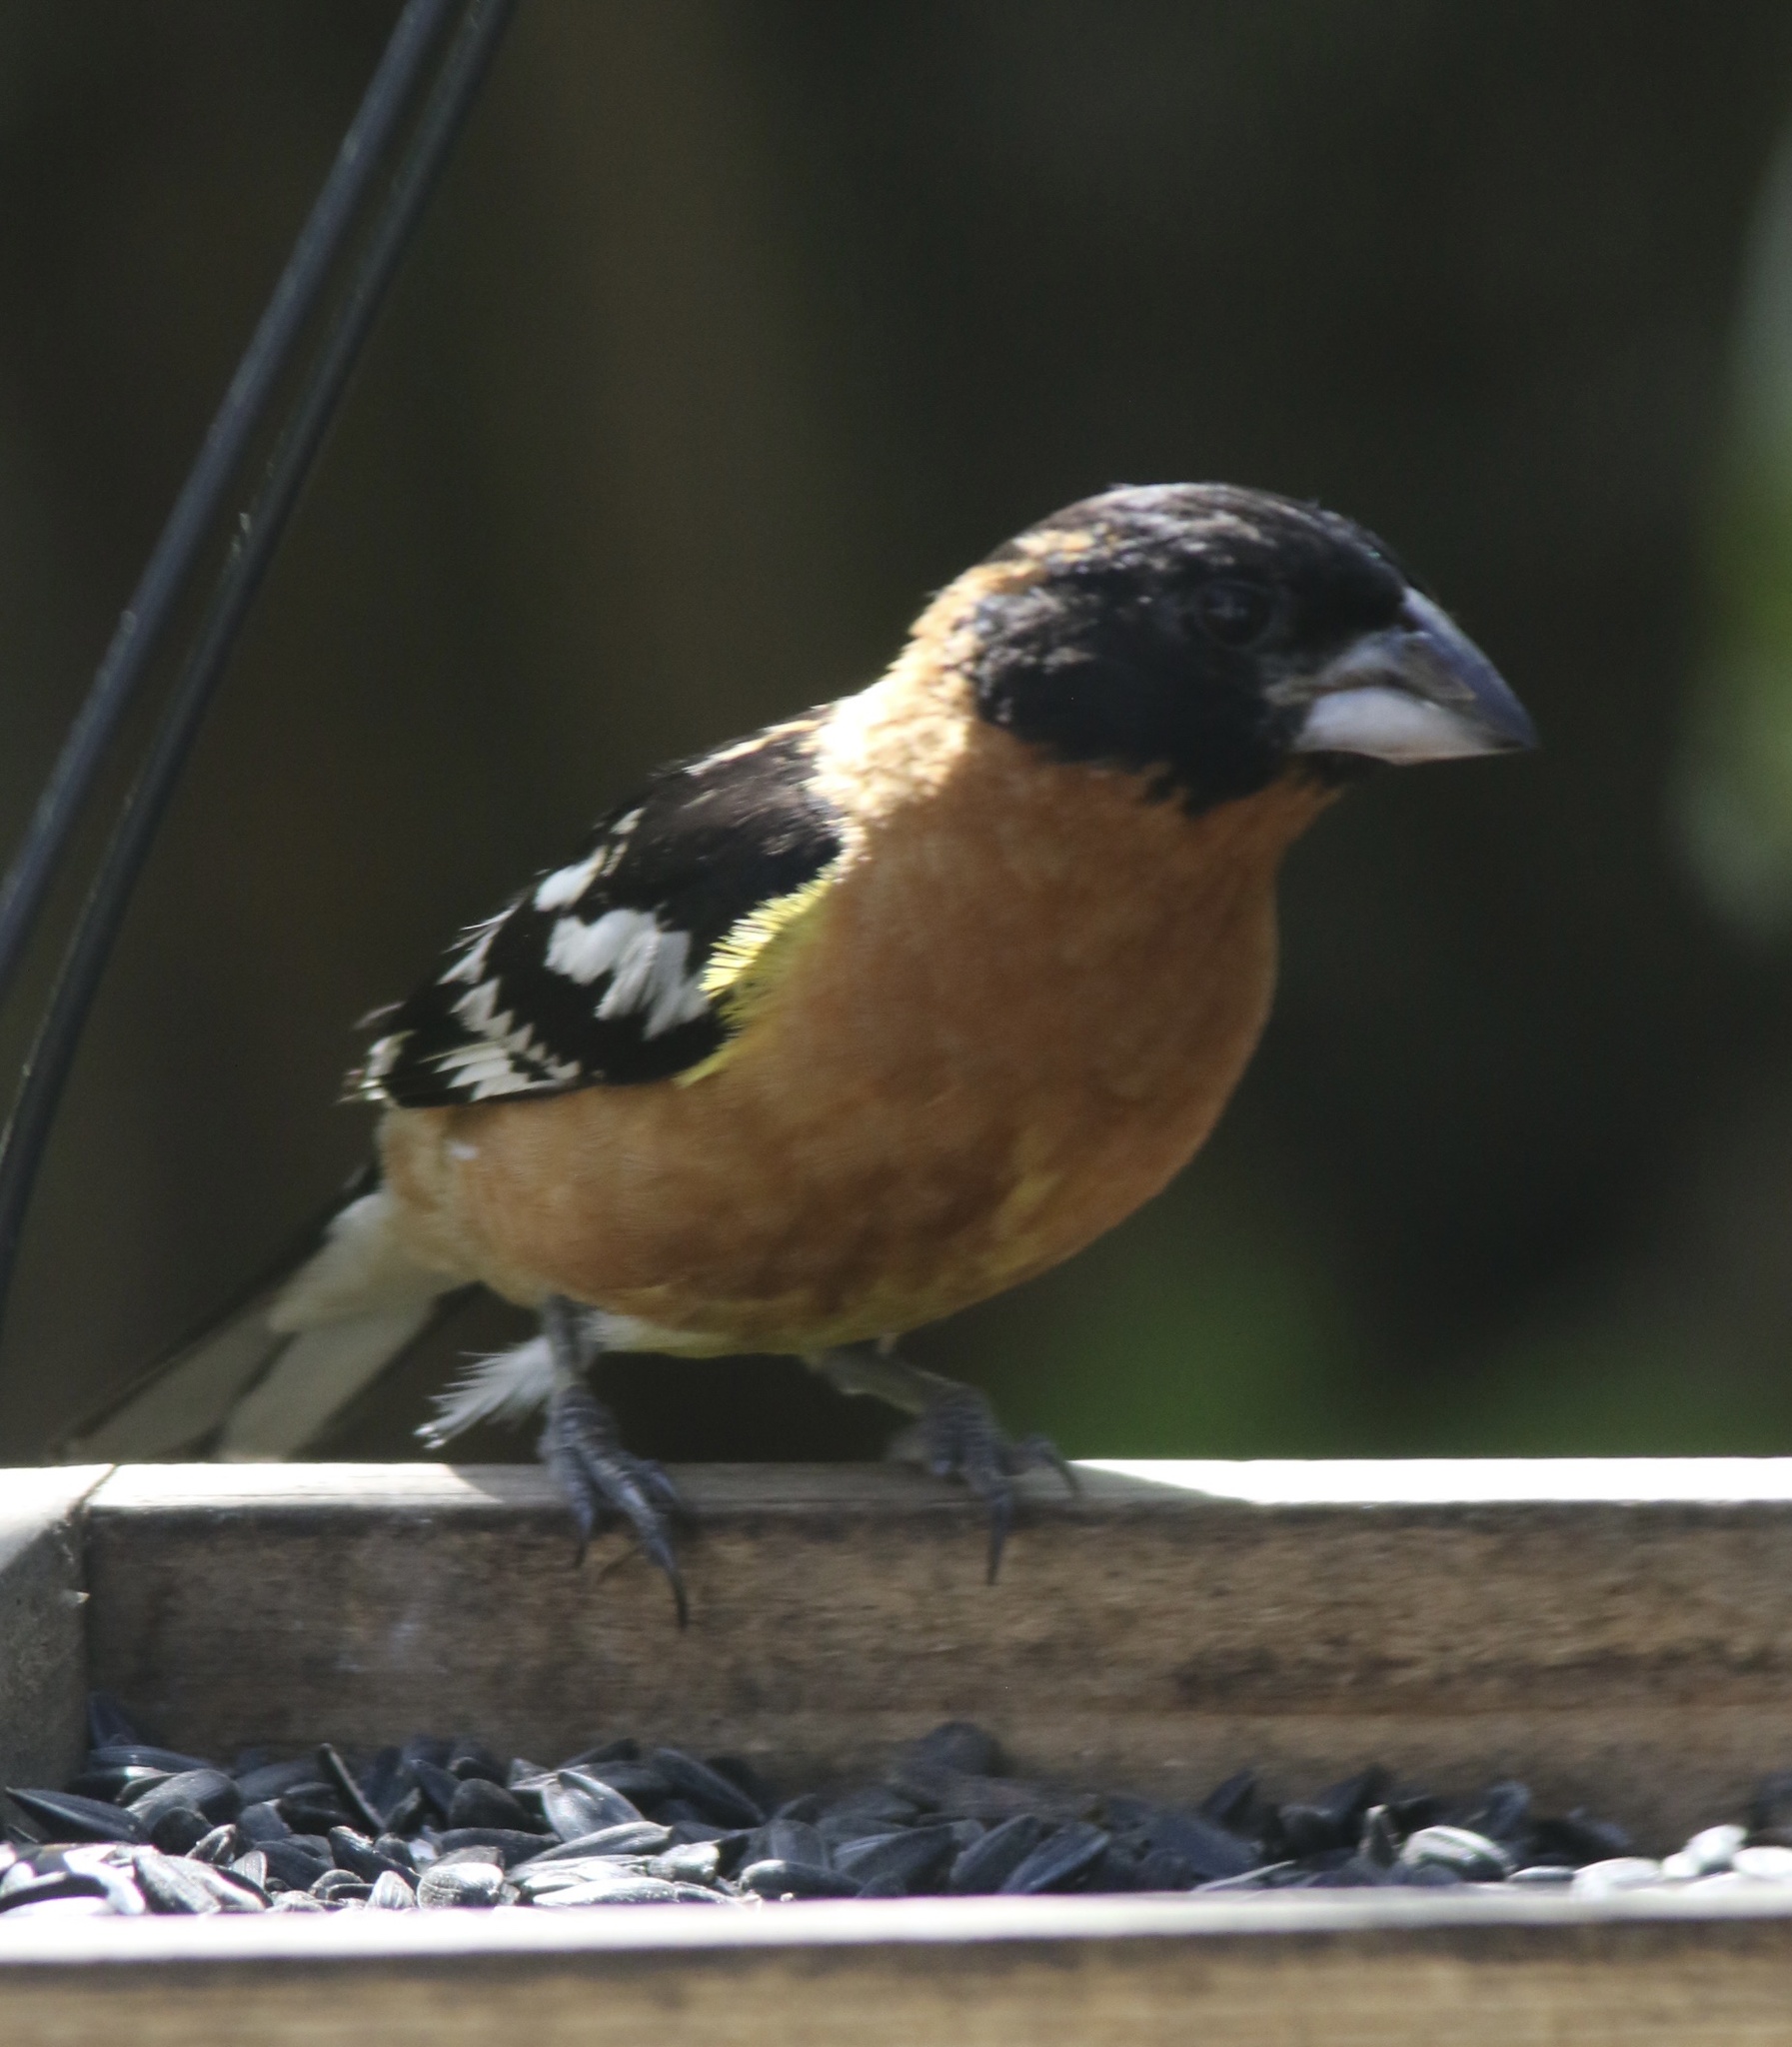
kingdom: Animalia
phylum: Chordata
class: Aves
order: Passeriformes
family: Cardinalidae
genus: Pheucticus
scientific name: Pheucticus melanocephalus
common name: Black-headed grosbeak
